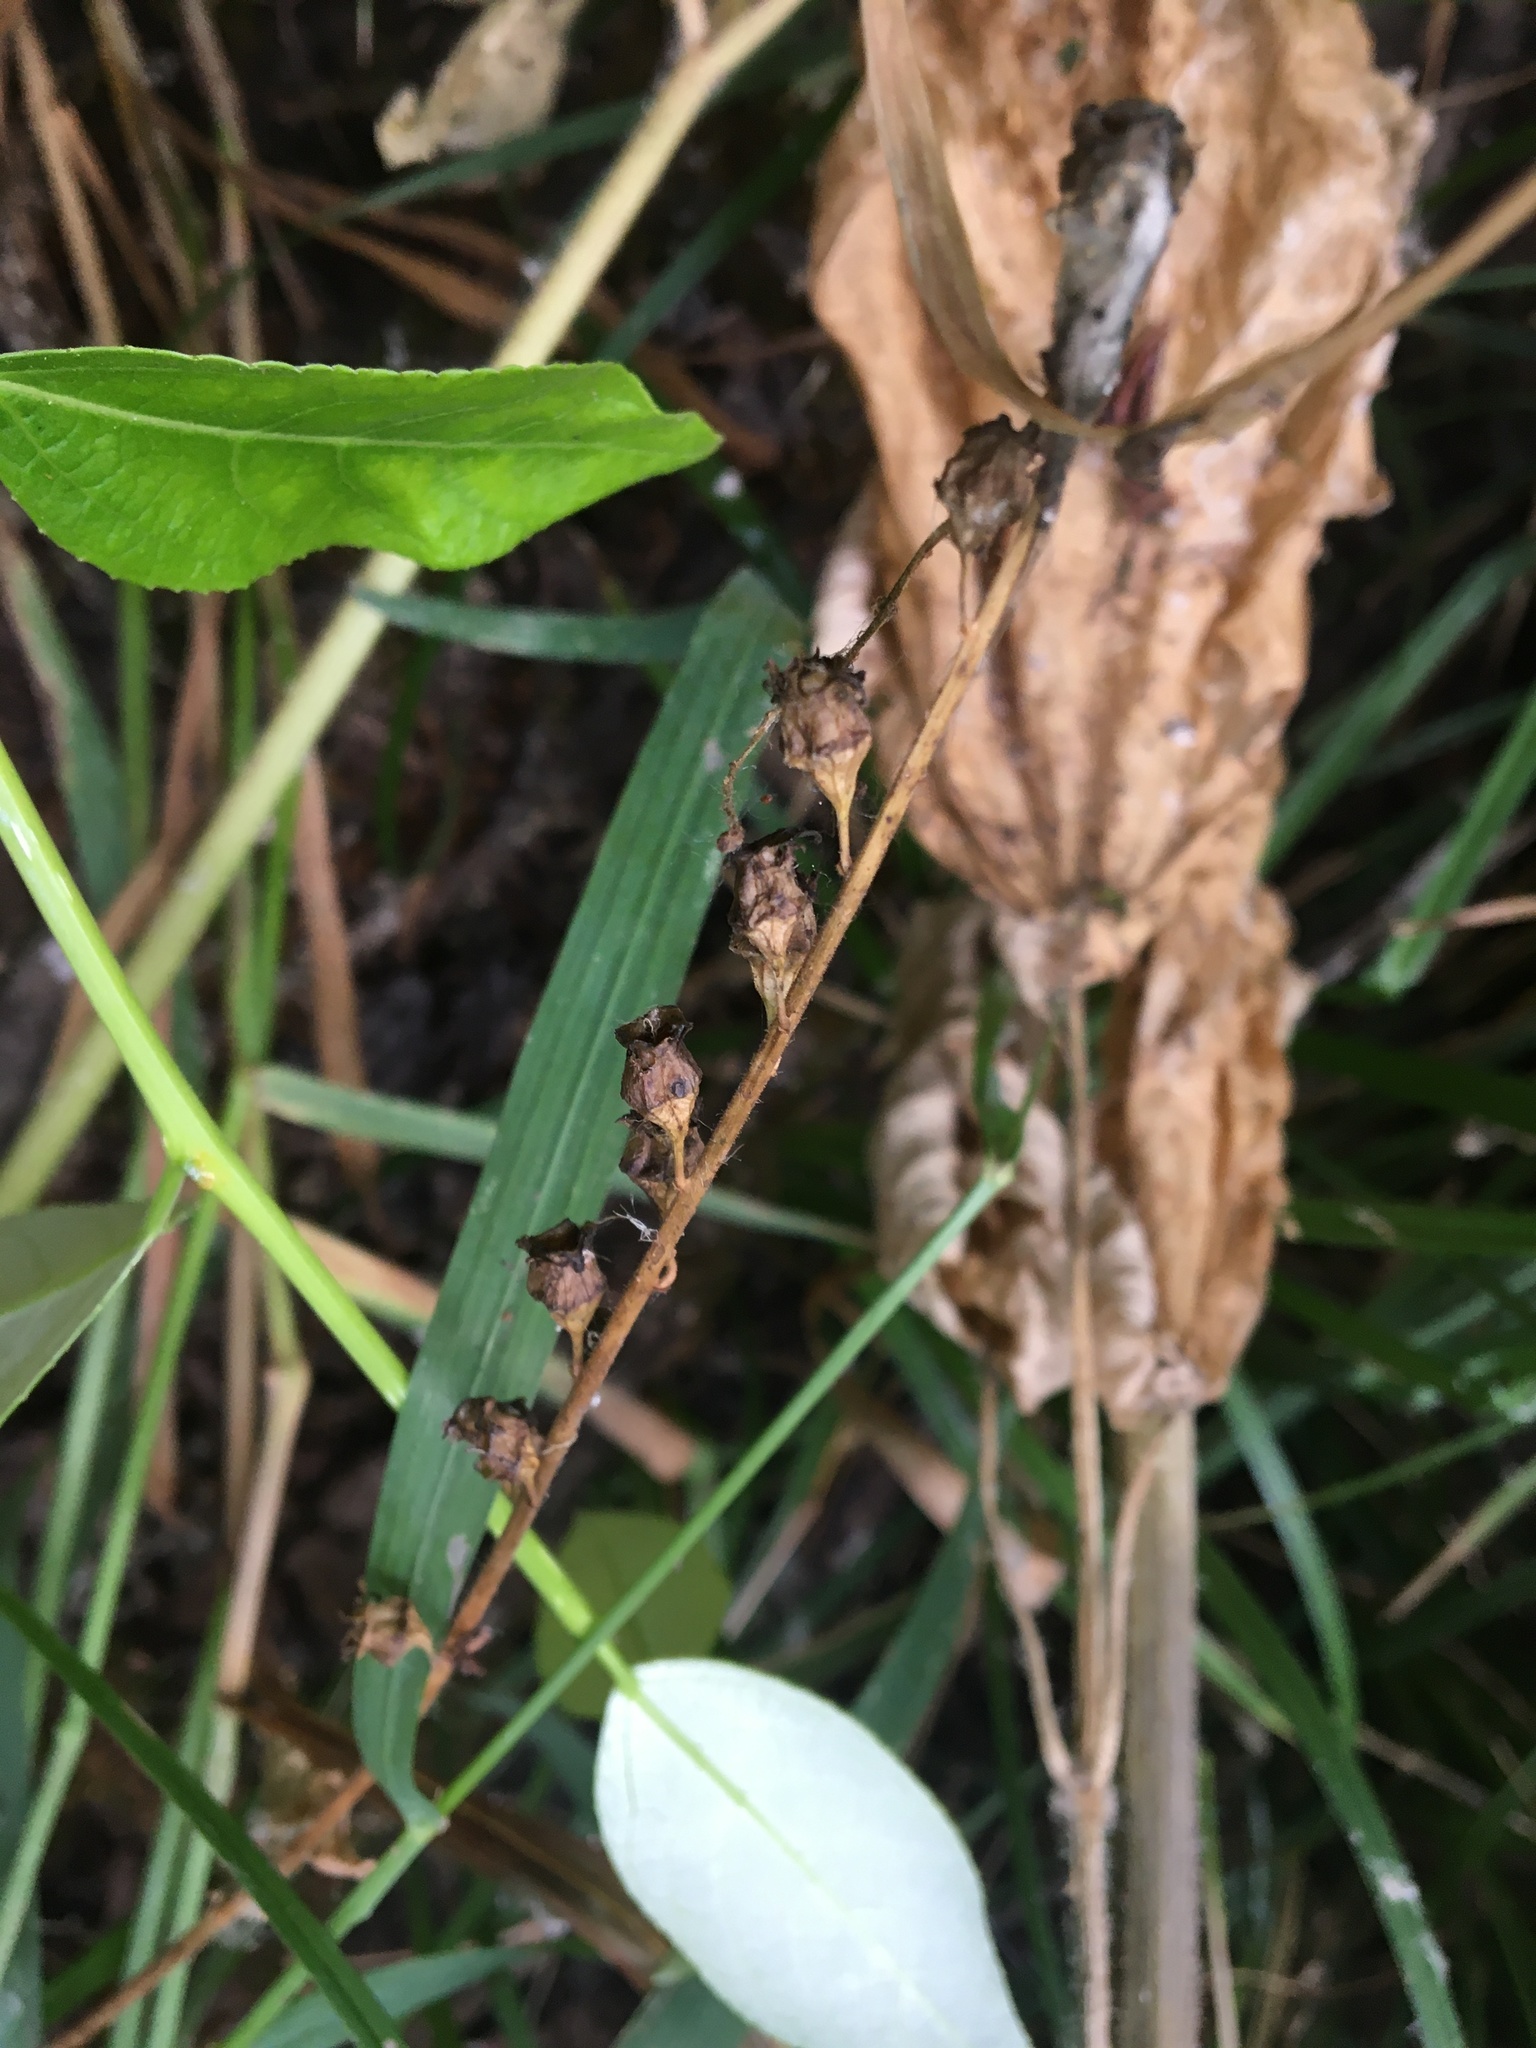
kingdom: Plantae
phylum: Tracheophyta
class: Magnoliopsida
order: Saxifragales
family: Saxifragaceae
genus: Tellima
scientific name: Tellima grandiflora
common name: Fringecups
